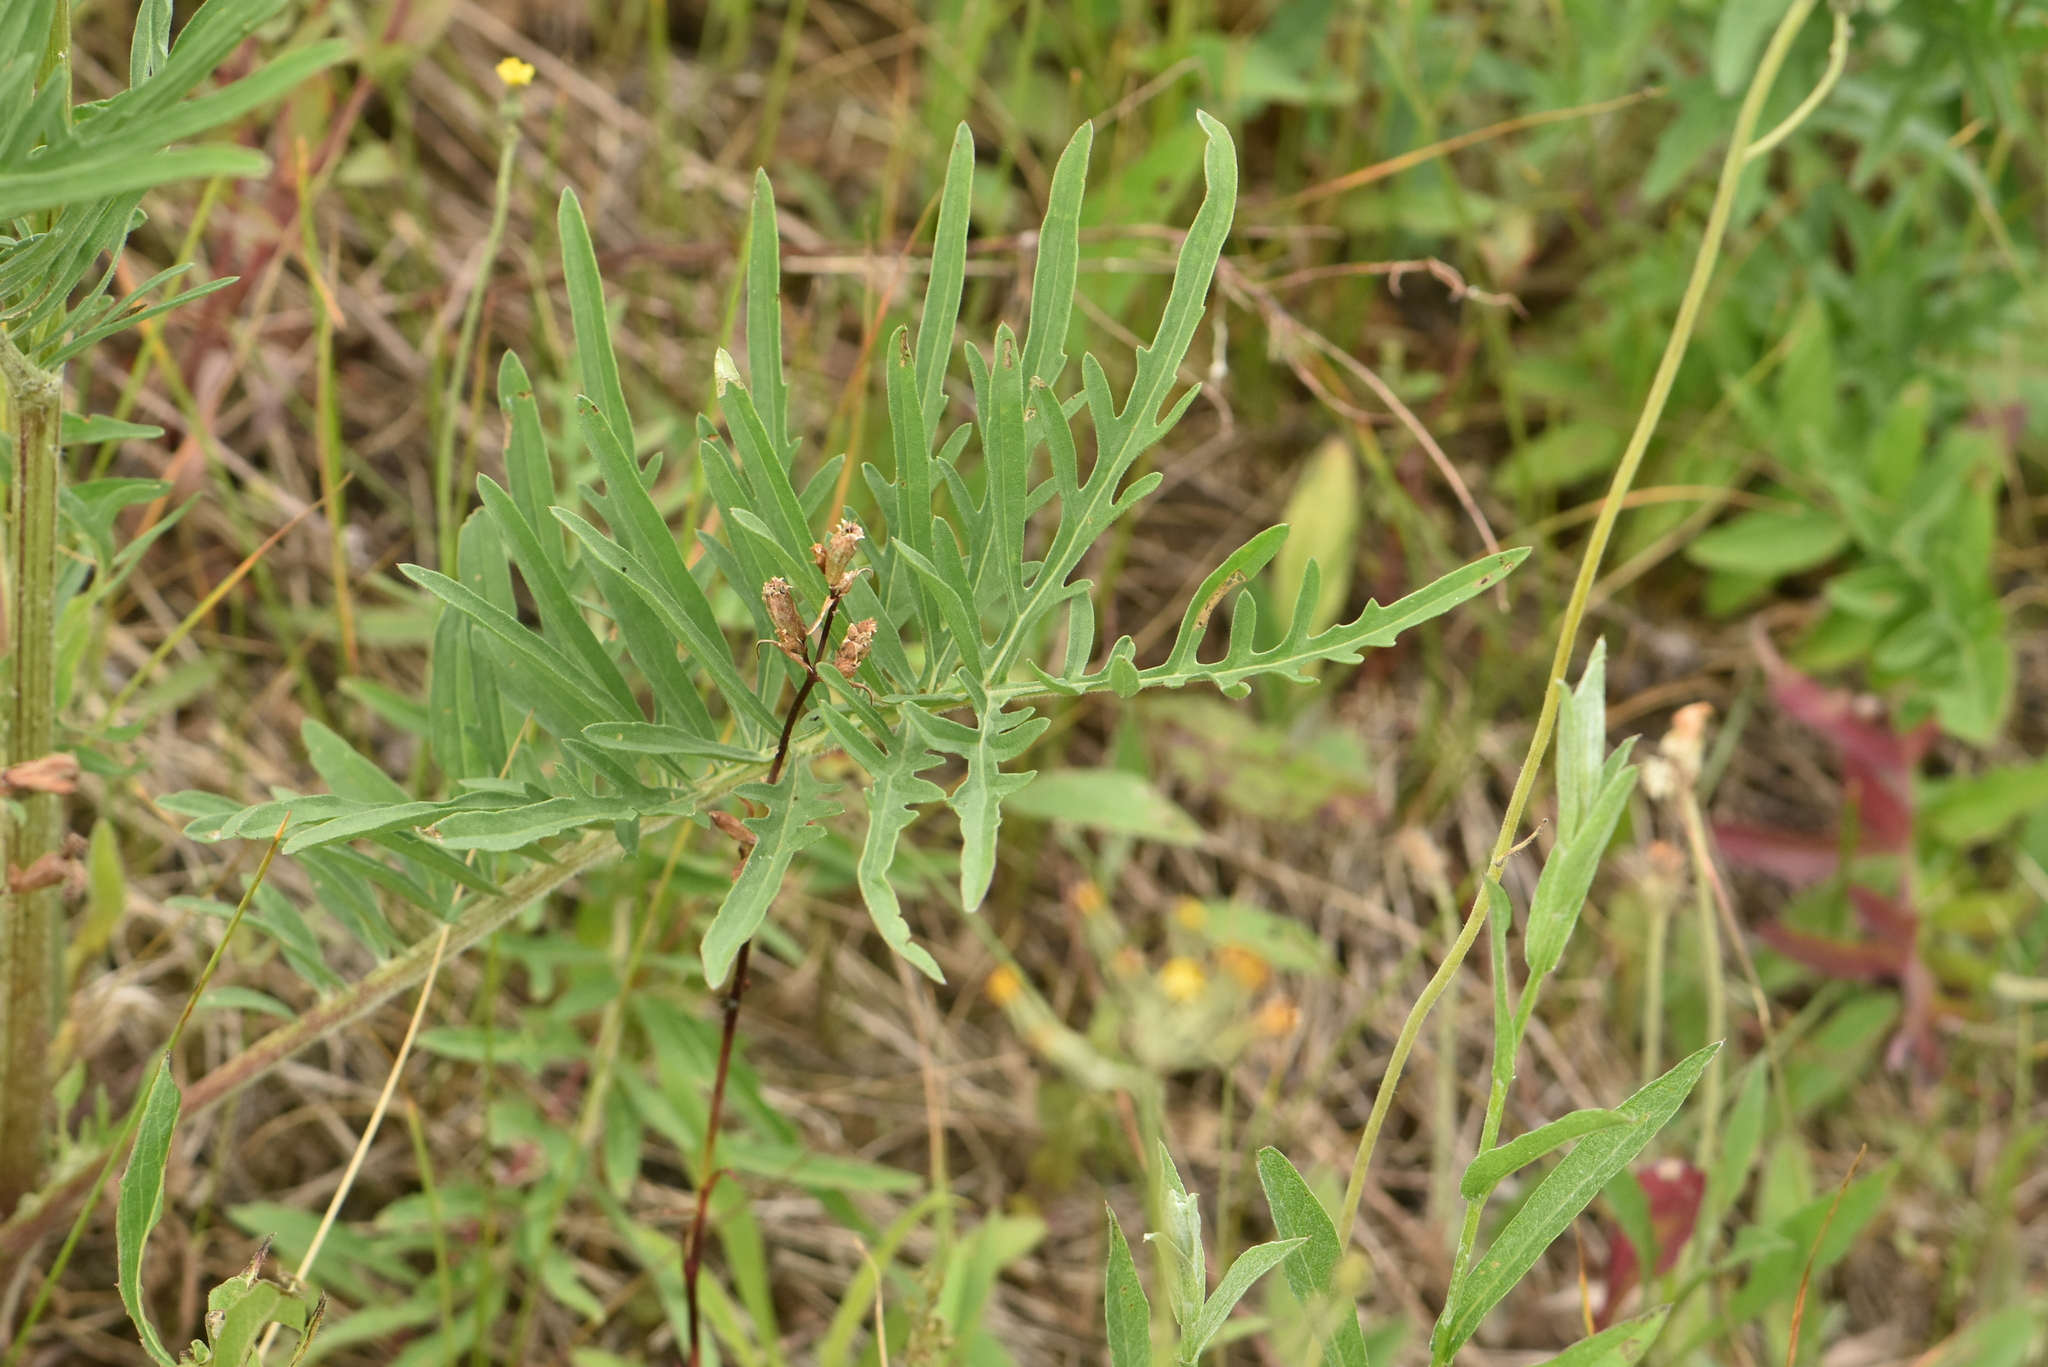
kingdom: Plantae
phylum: Tracheophyta
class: Magnoliopsida
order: Asterales
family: Asteraceae
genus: Centaurea
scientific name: Centaurea scabiosa
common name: Greater knapweed
